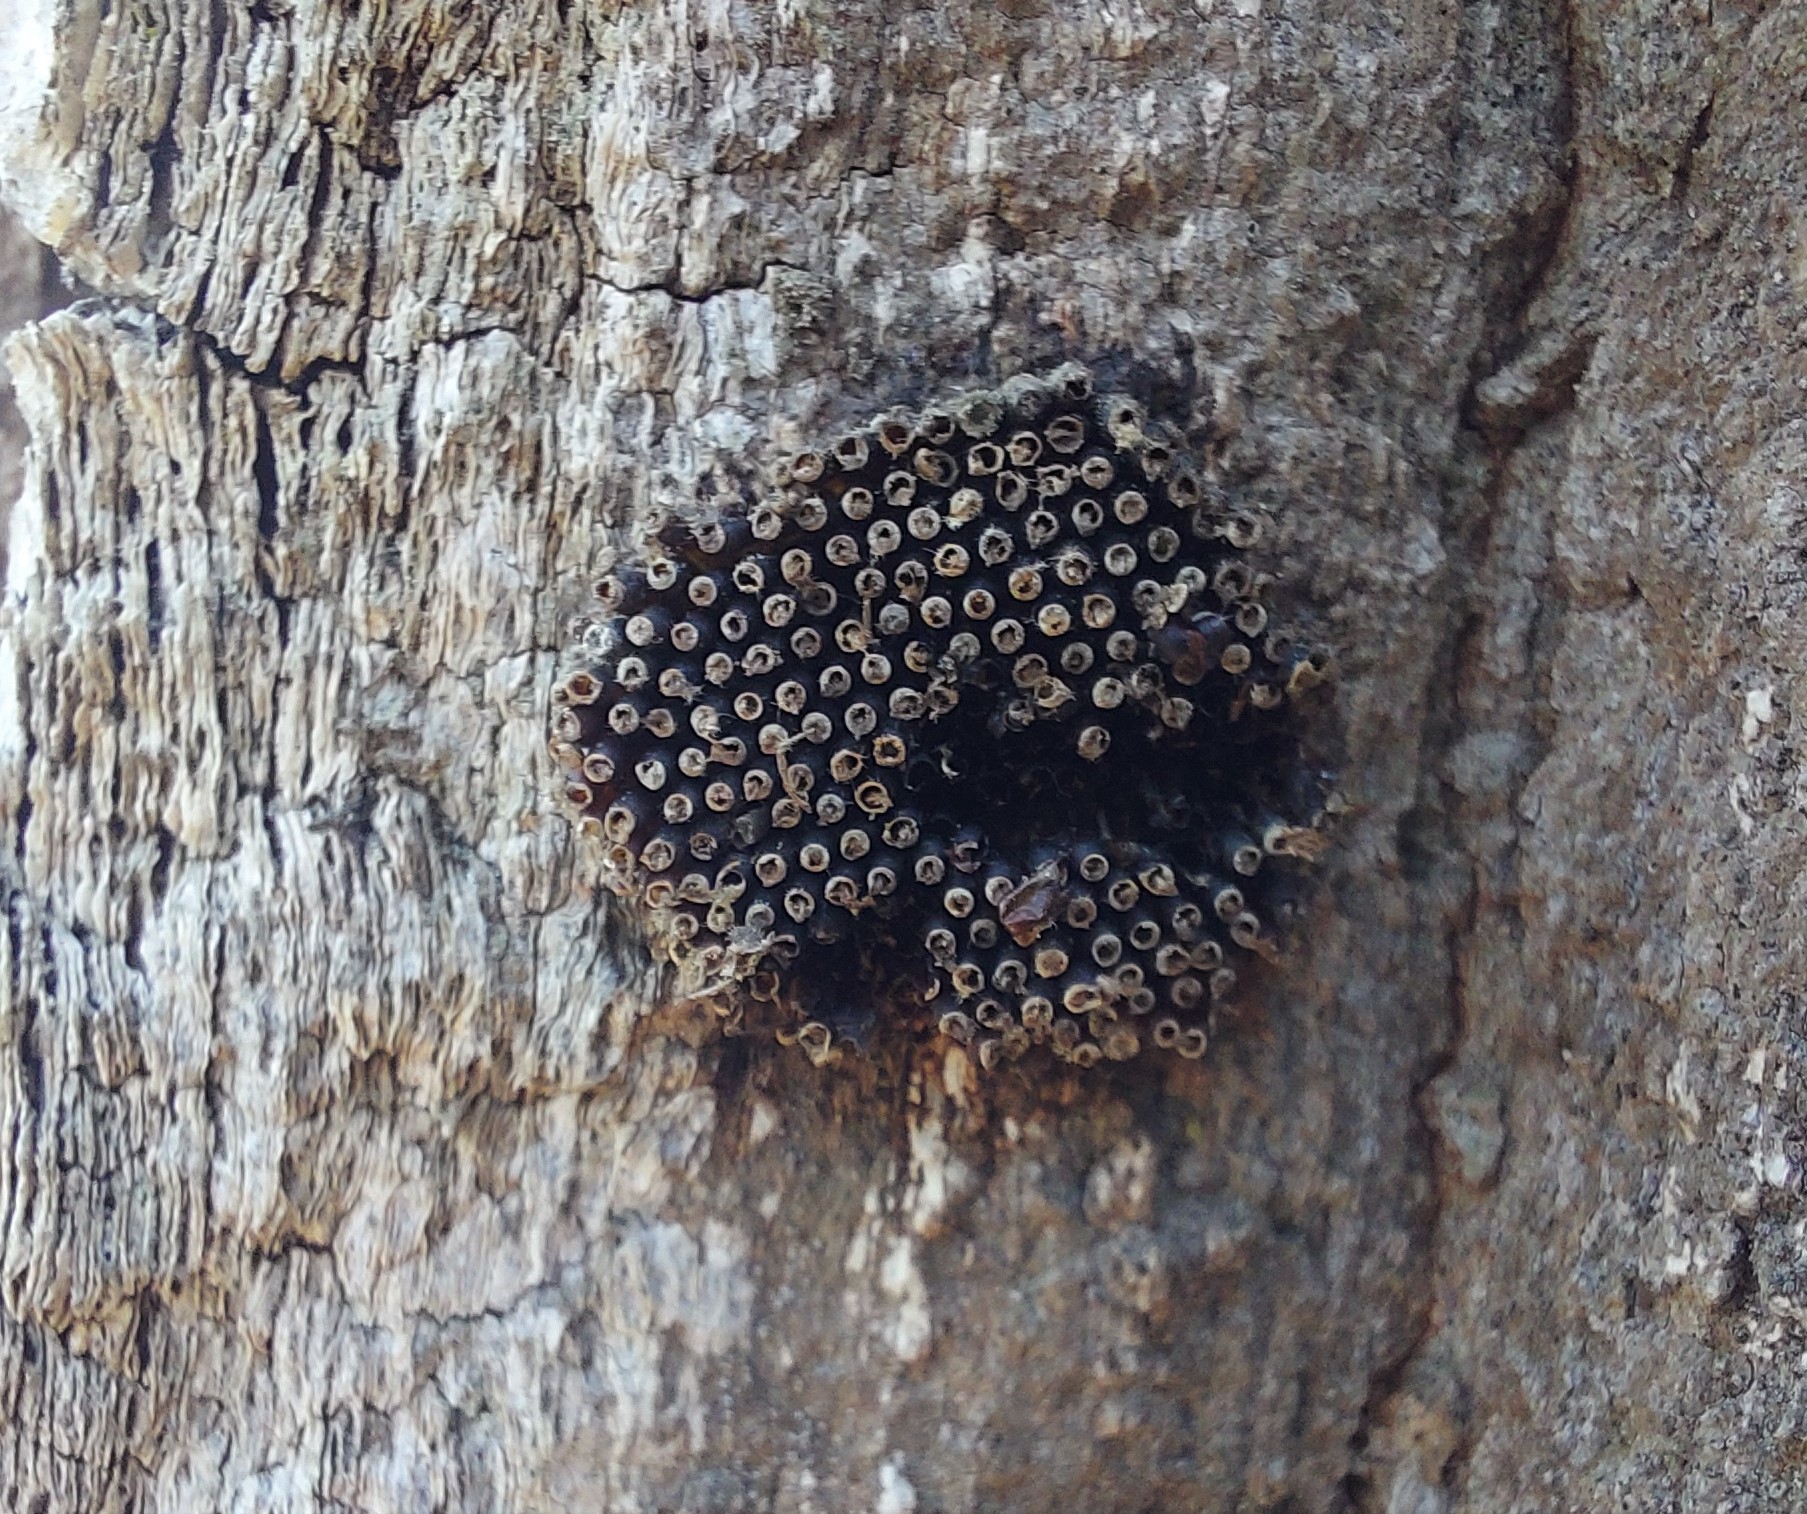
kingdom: Animalia
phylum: Arthropoda
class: Insecta
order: Hemiptera
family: Reduviidae
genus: Arilus
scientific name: Arilus cristatus
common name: North american wheel bug
